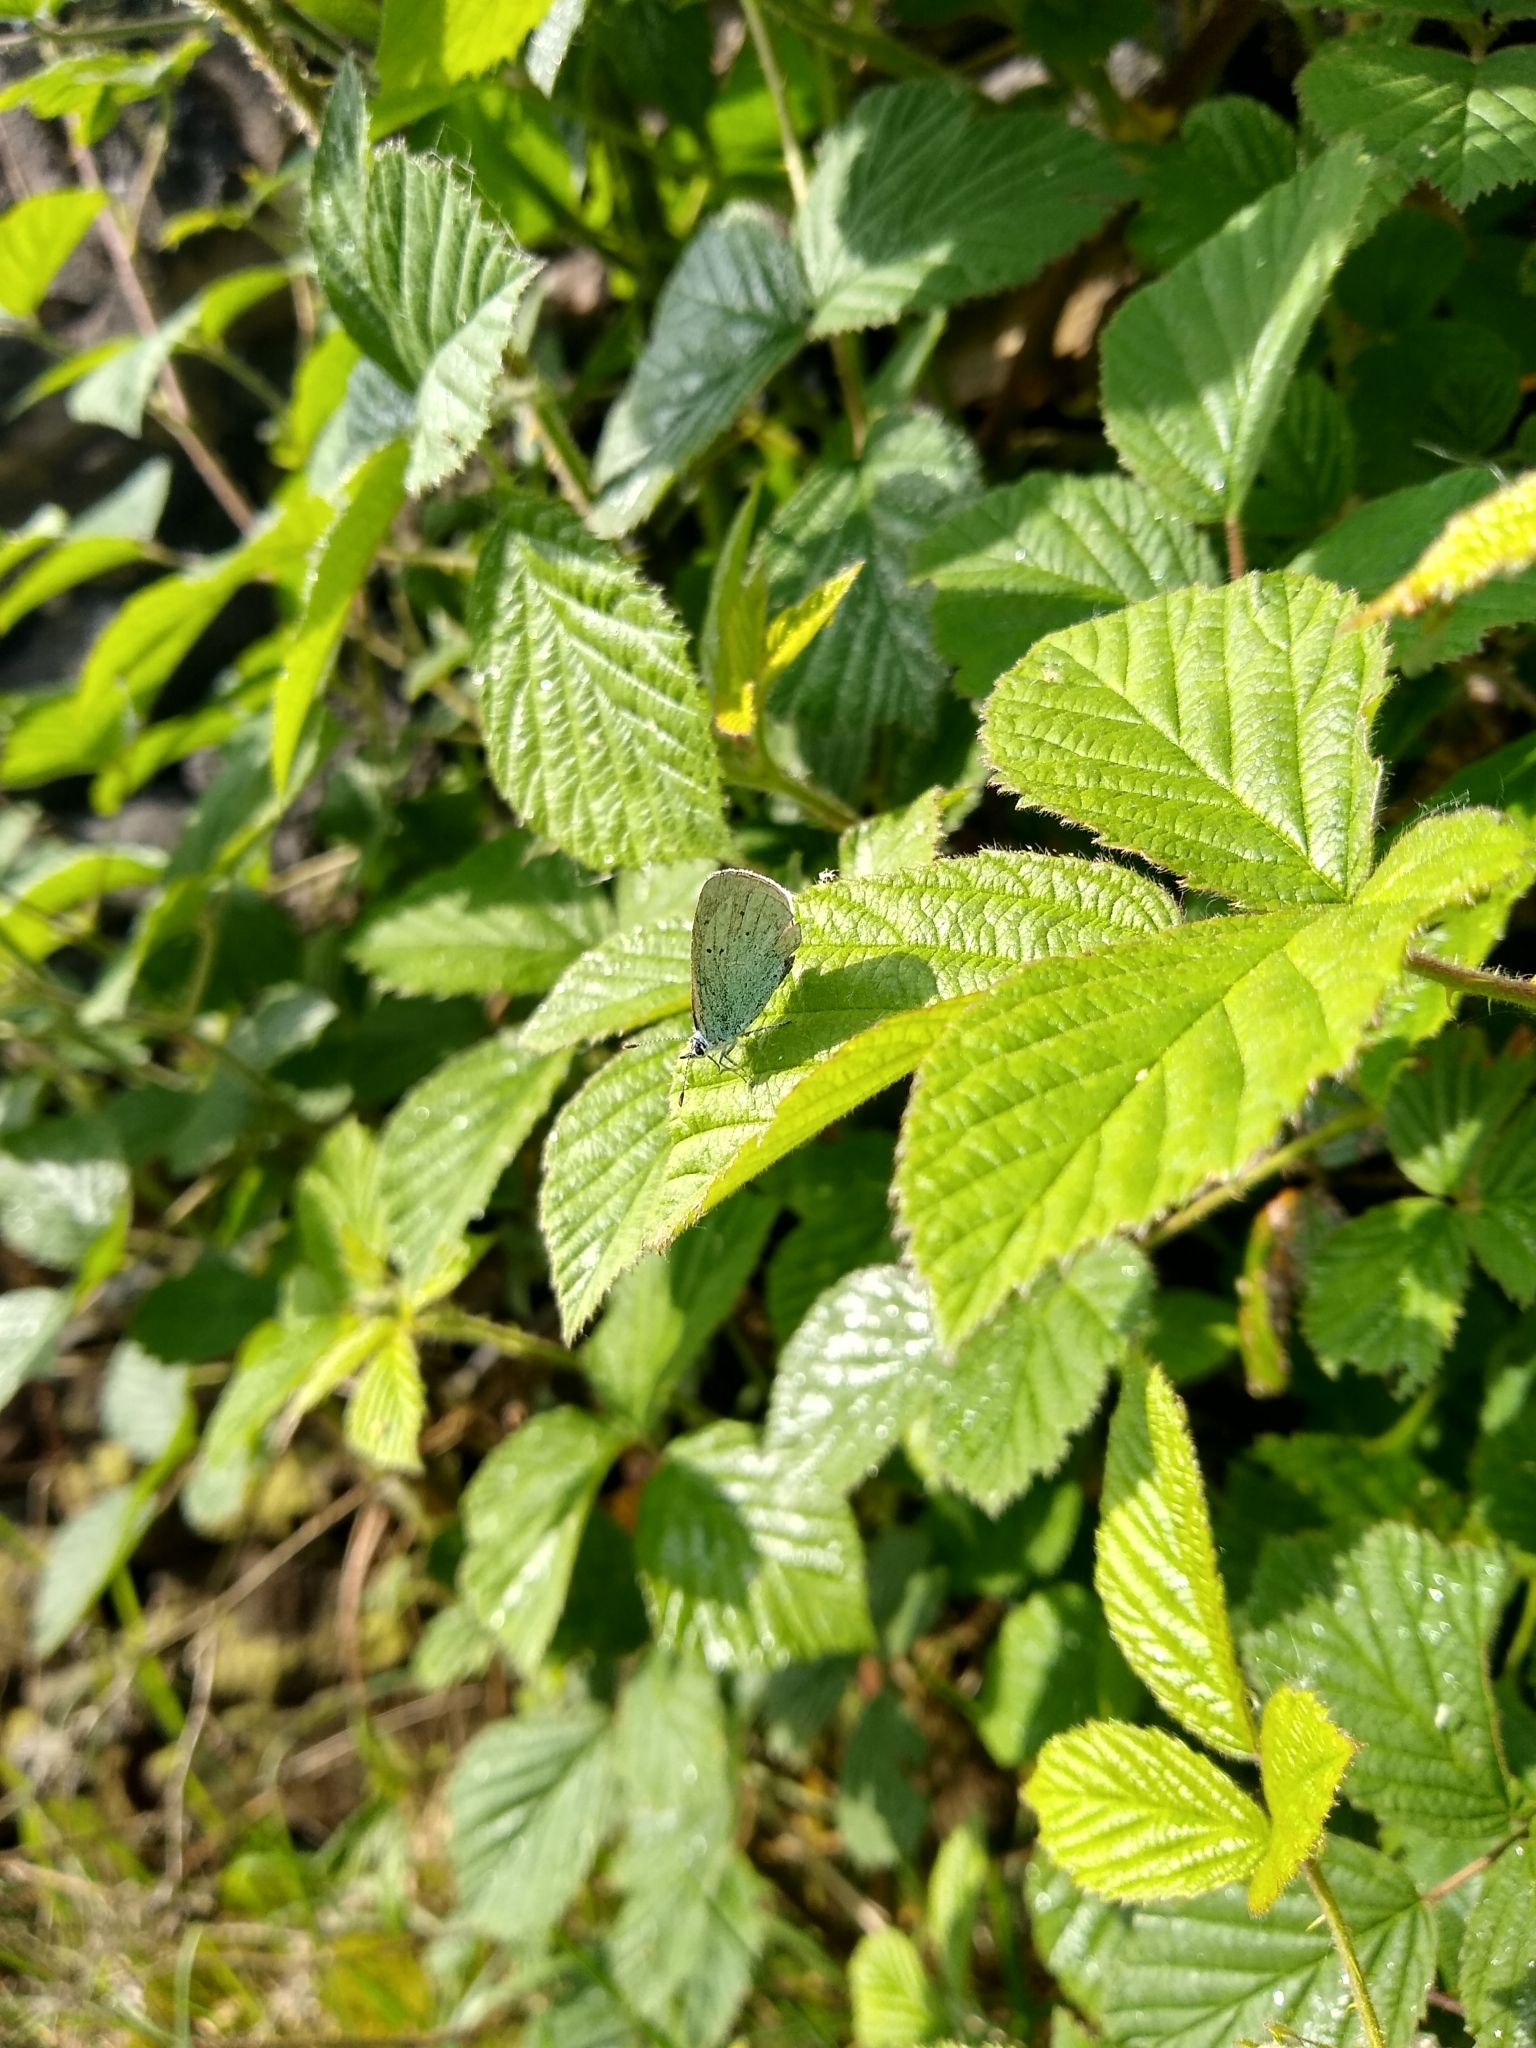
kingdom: Animalia
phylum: Arthropoda
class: Insecta
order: Lepidoptera
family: Lycaenidae
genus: Celastrina
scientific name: Celastrina argiolus
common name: Holly blue
